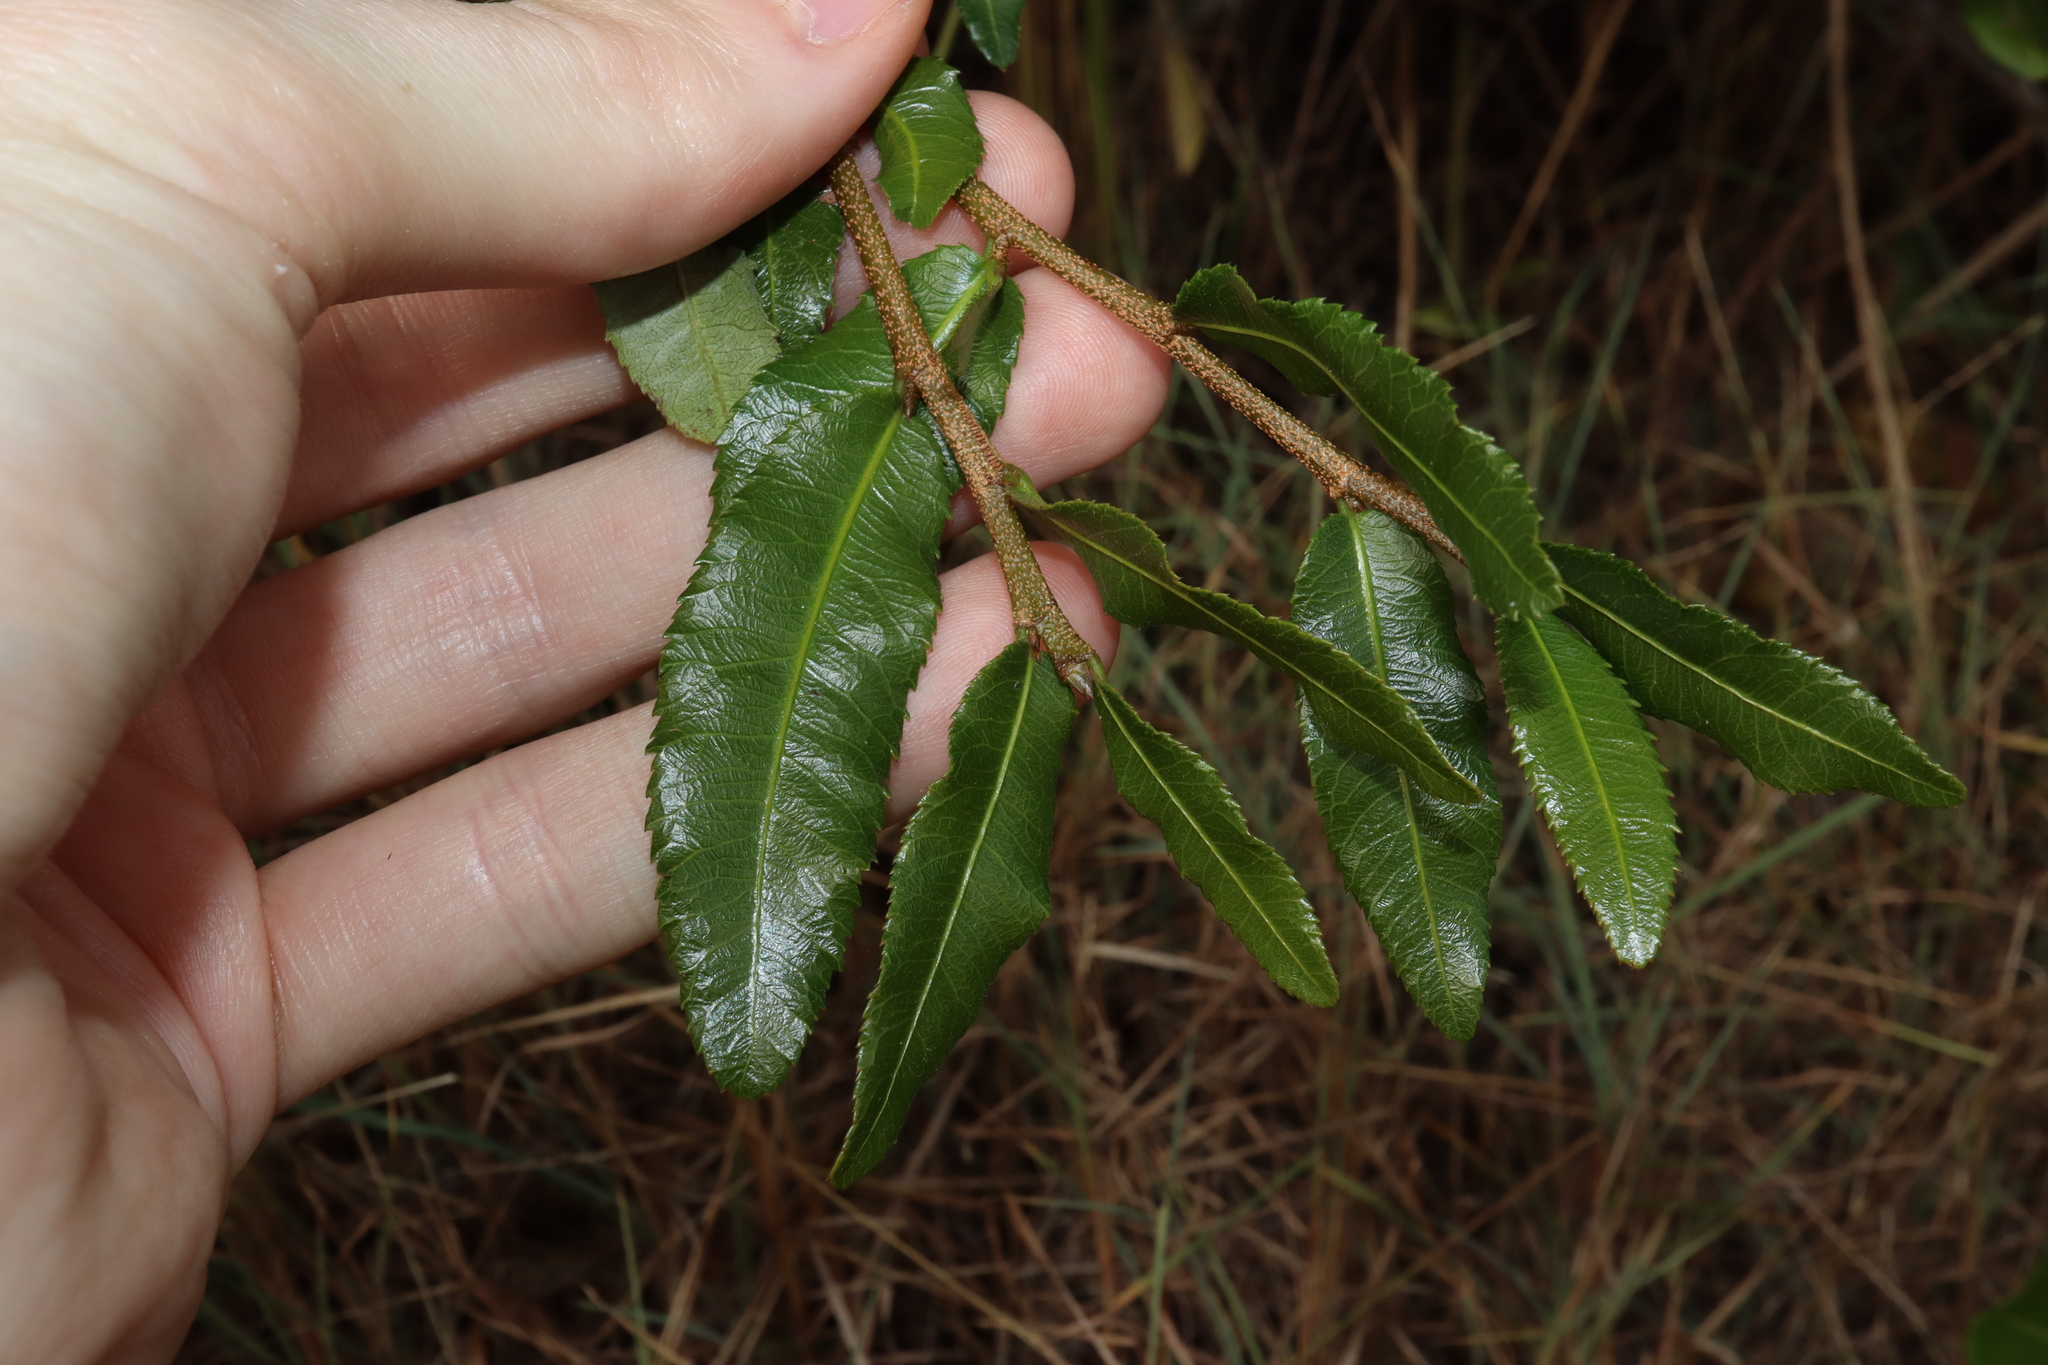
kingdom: Plantae
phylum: Tracheophyta
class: Magnoliopsida
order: Malpighiales
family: Ochnaceae
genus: Ochna
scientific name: Ochna serrulata
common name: Mickey mouse plant
